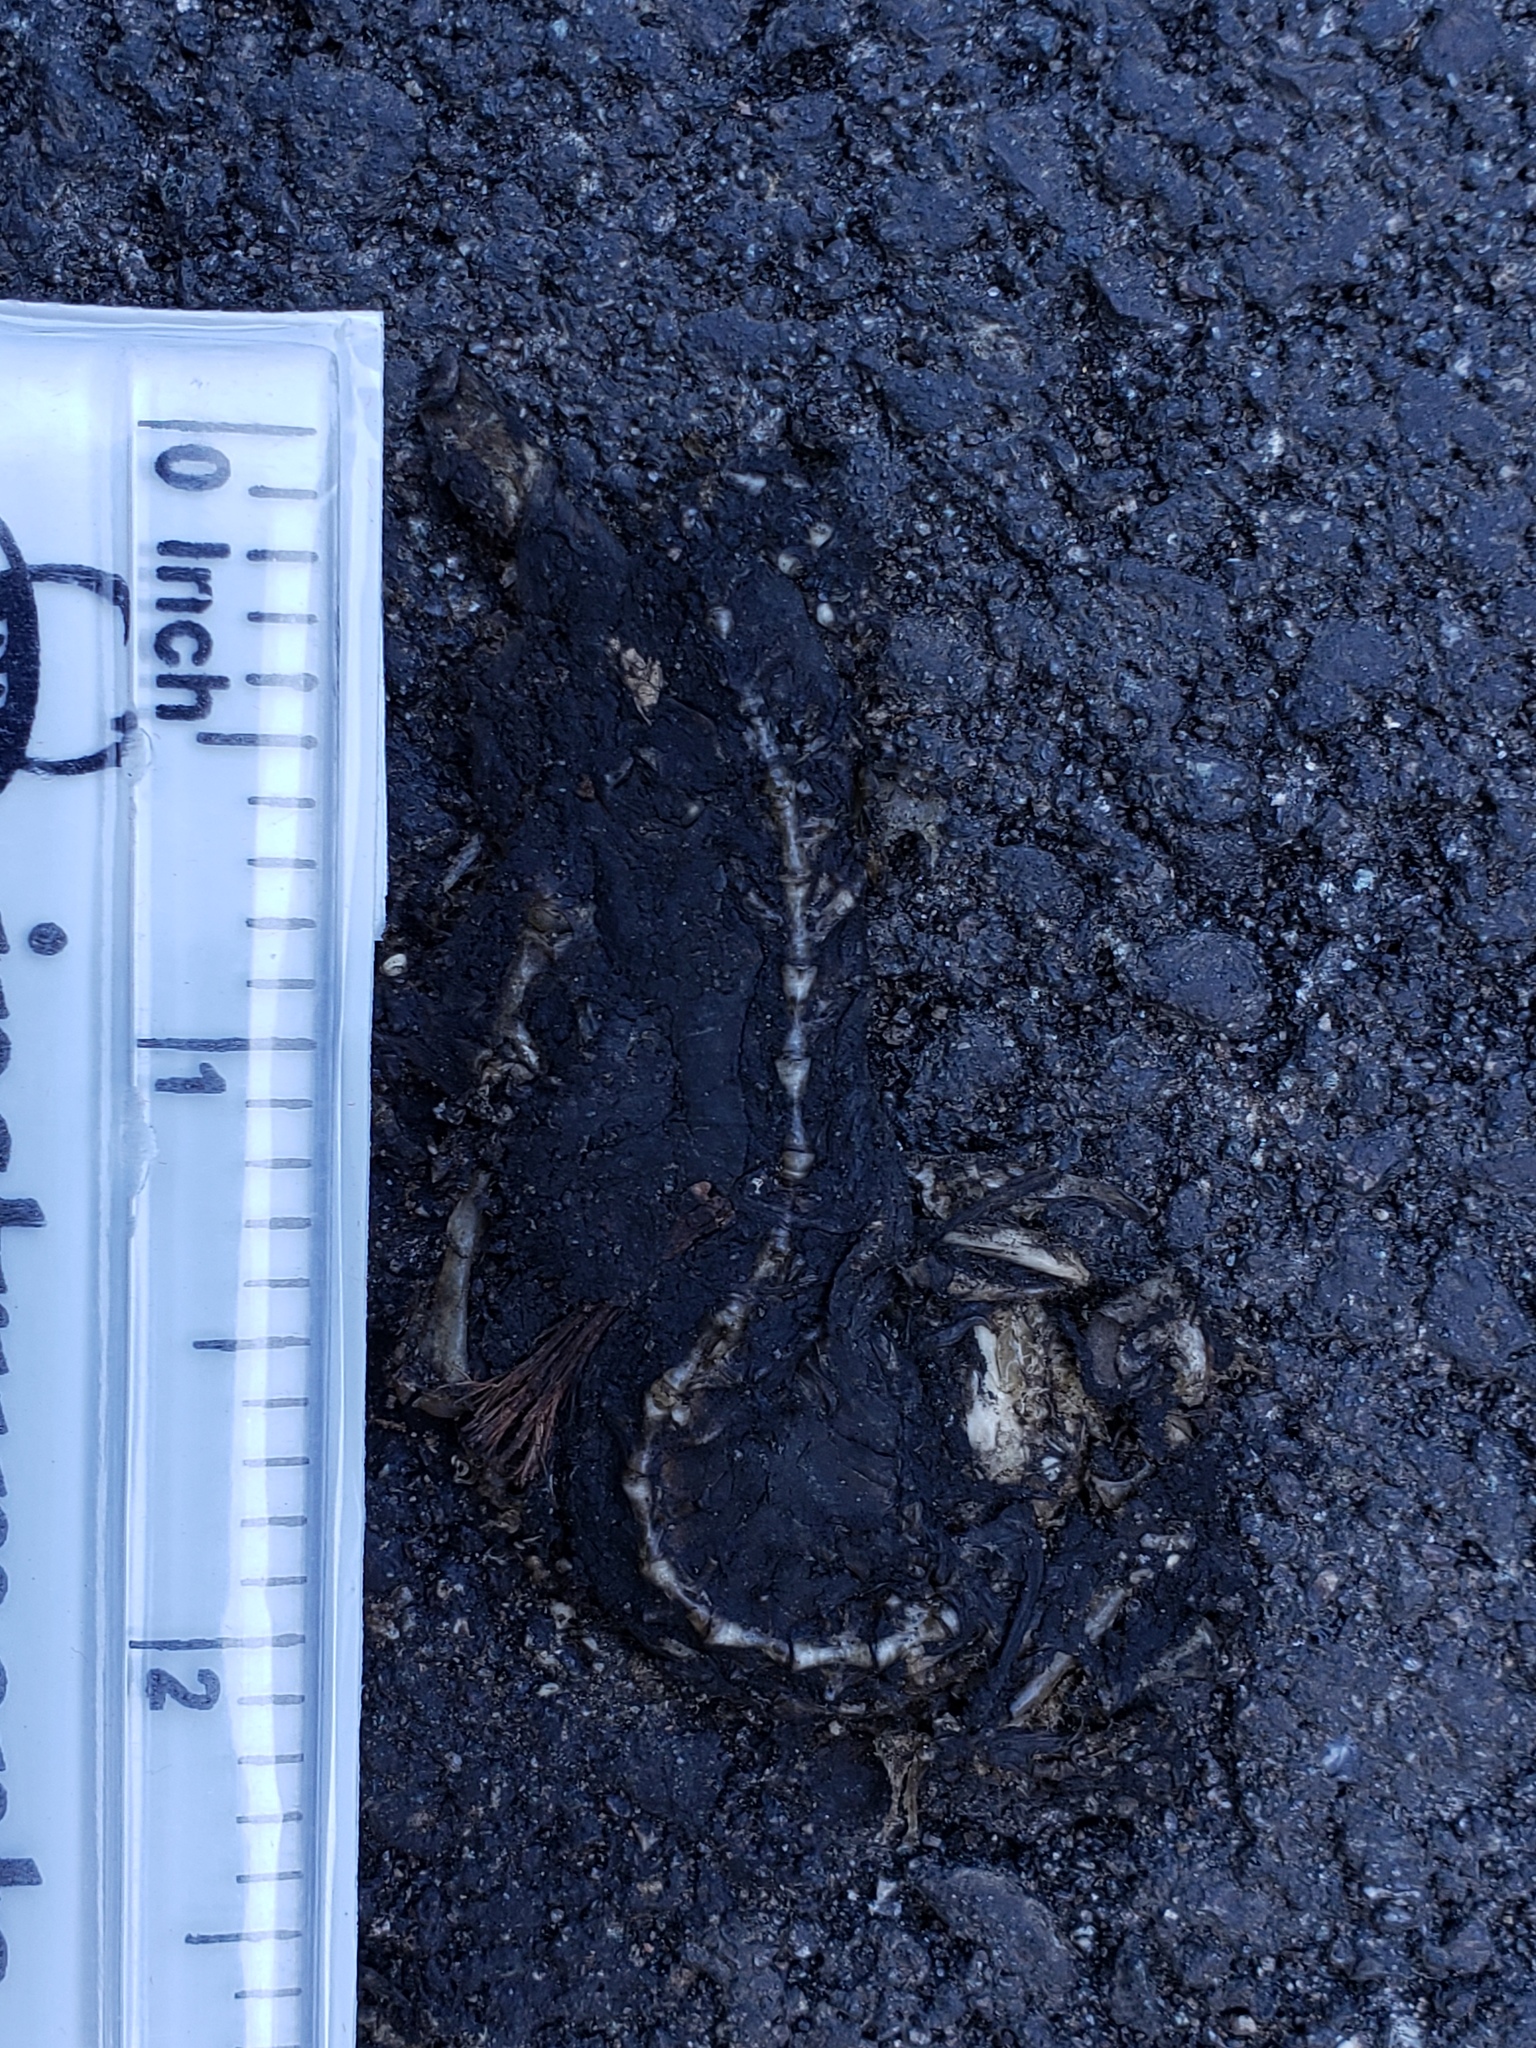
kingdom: Animalia
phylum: Chordata
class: Amphibia
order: Caudata
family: Salamandridae
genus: Taricha
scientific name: Taricha
